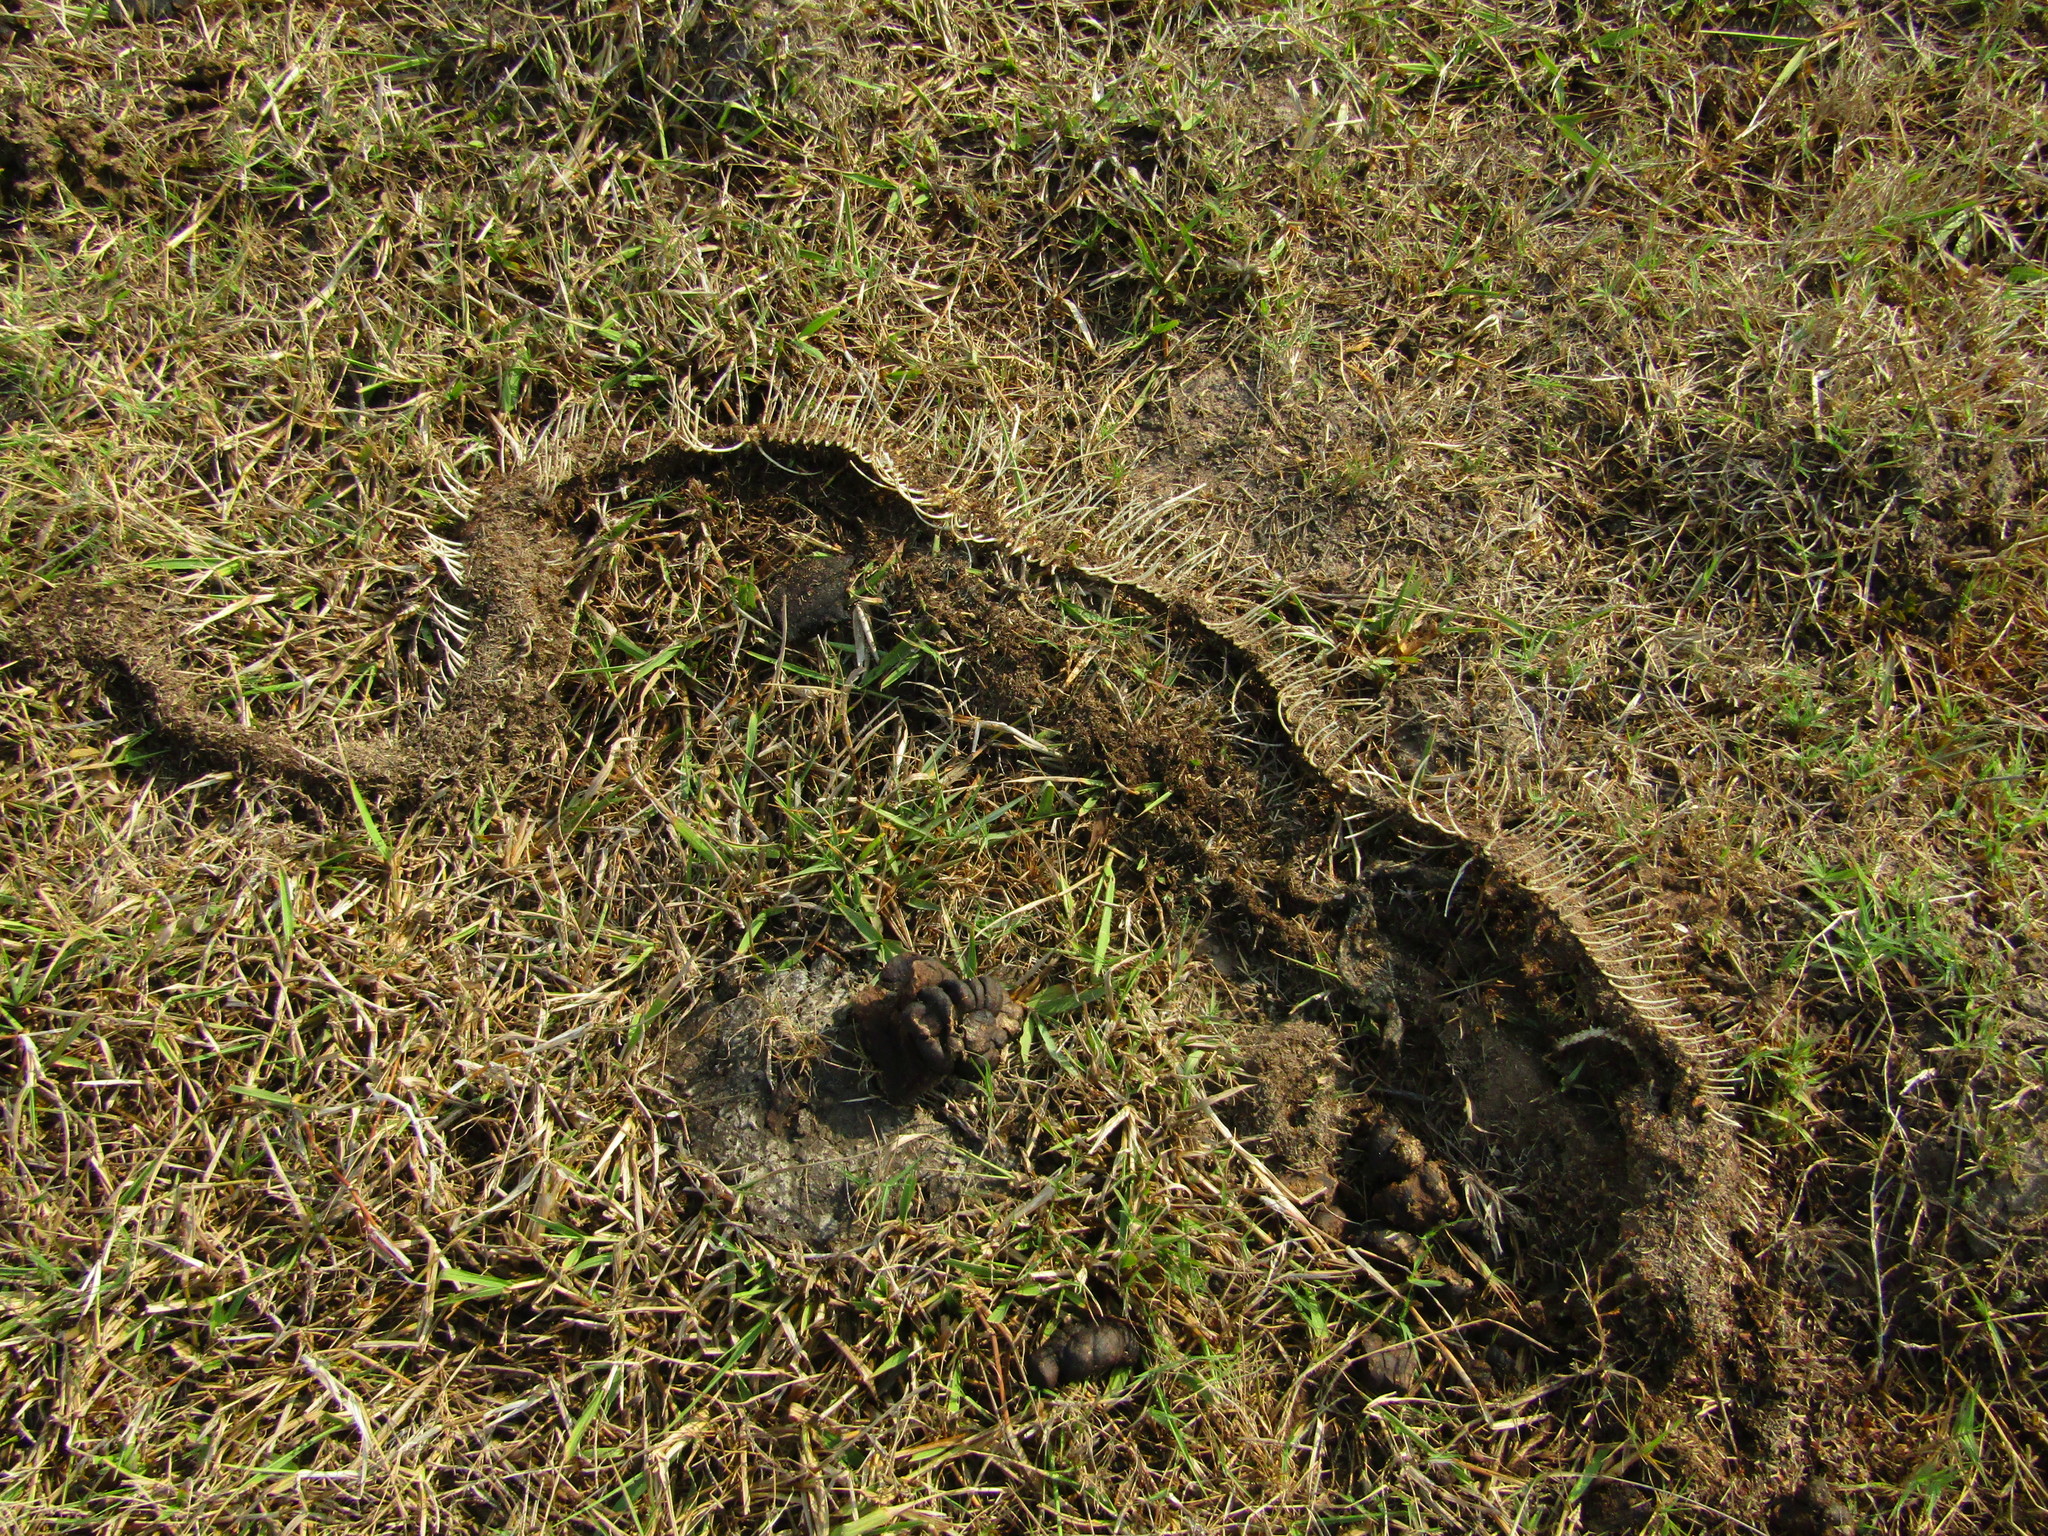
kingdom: Animalia
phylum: Chordata
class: Squamata
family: Boidae
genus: Boa
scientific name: Boa imperator
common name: Central american boa
